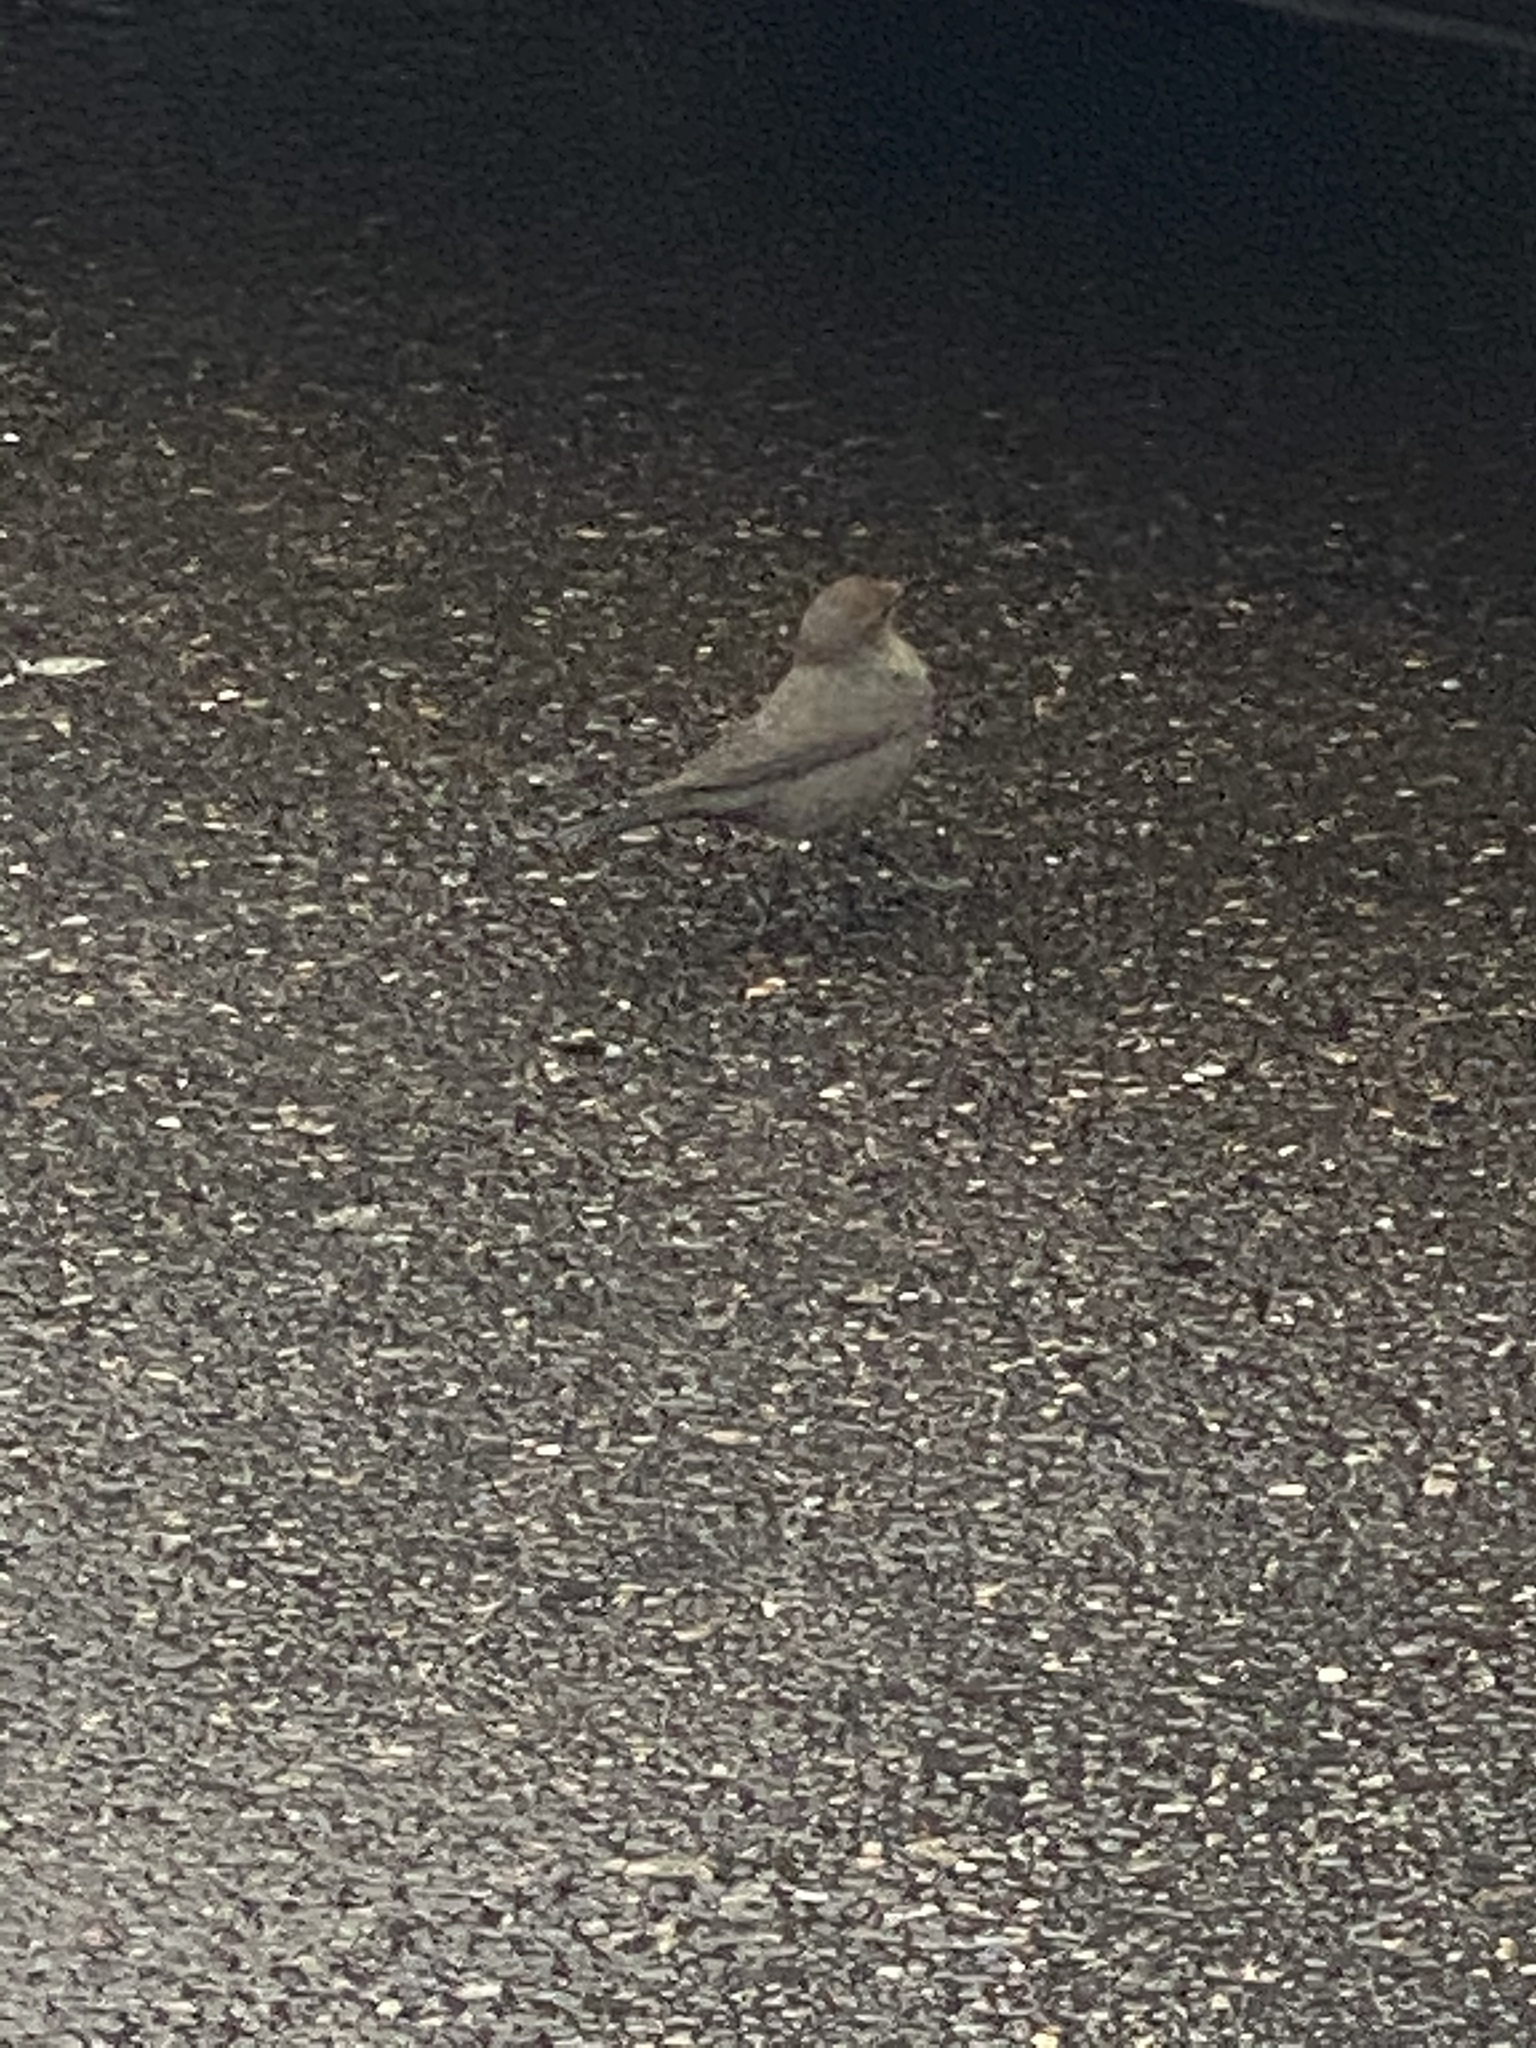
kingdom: Animalia
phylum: Chordata
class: Aves
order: Passeriformes
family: Icteridae
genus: Euphagus
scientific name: Euphagus cyanocephalus
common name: Brewer's blackbird
